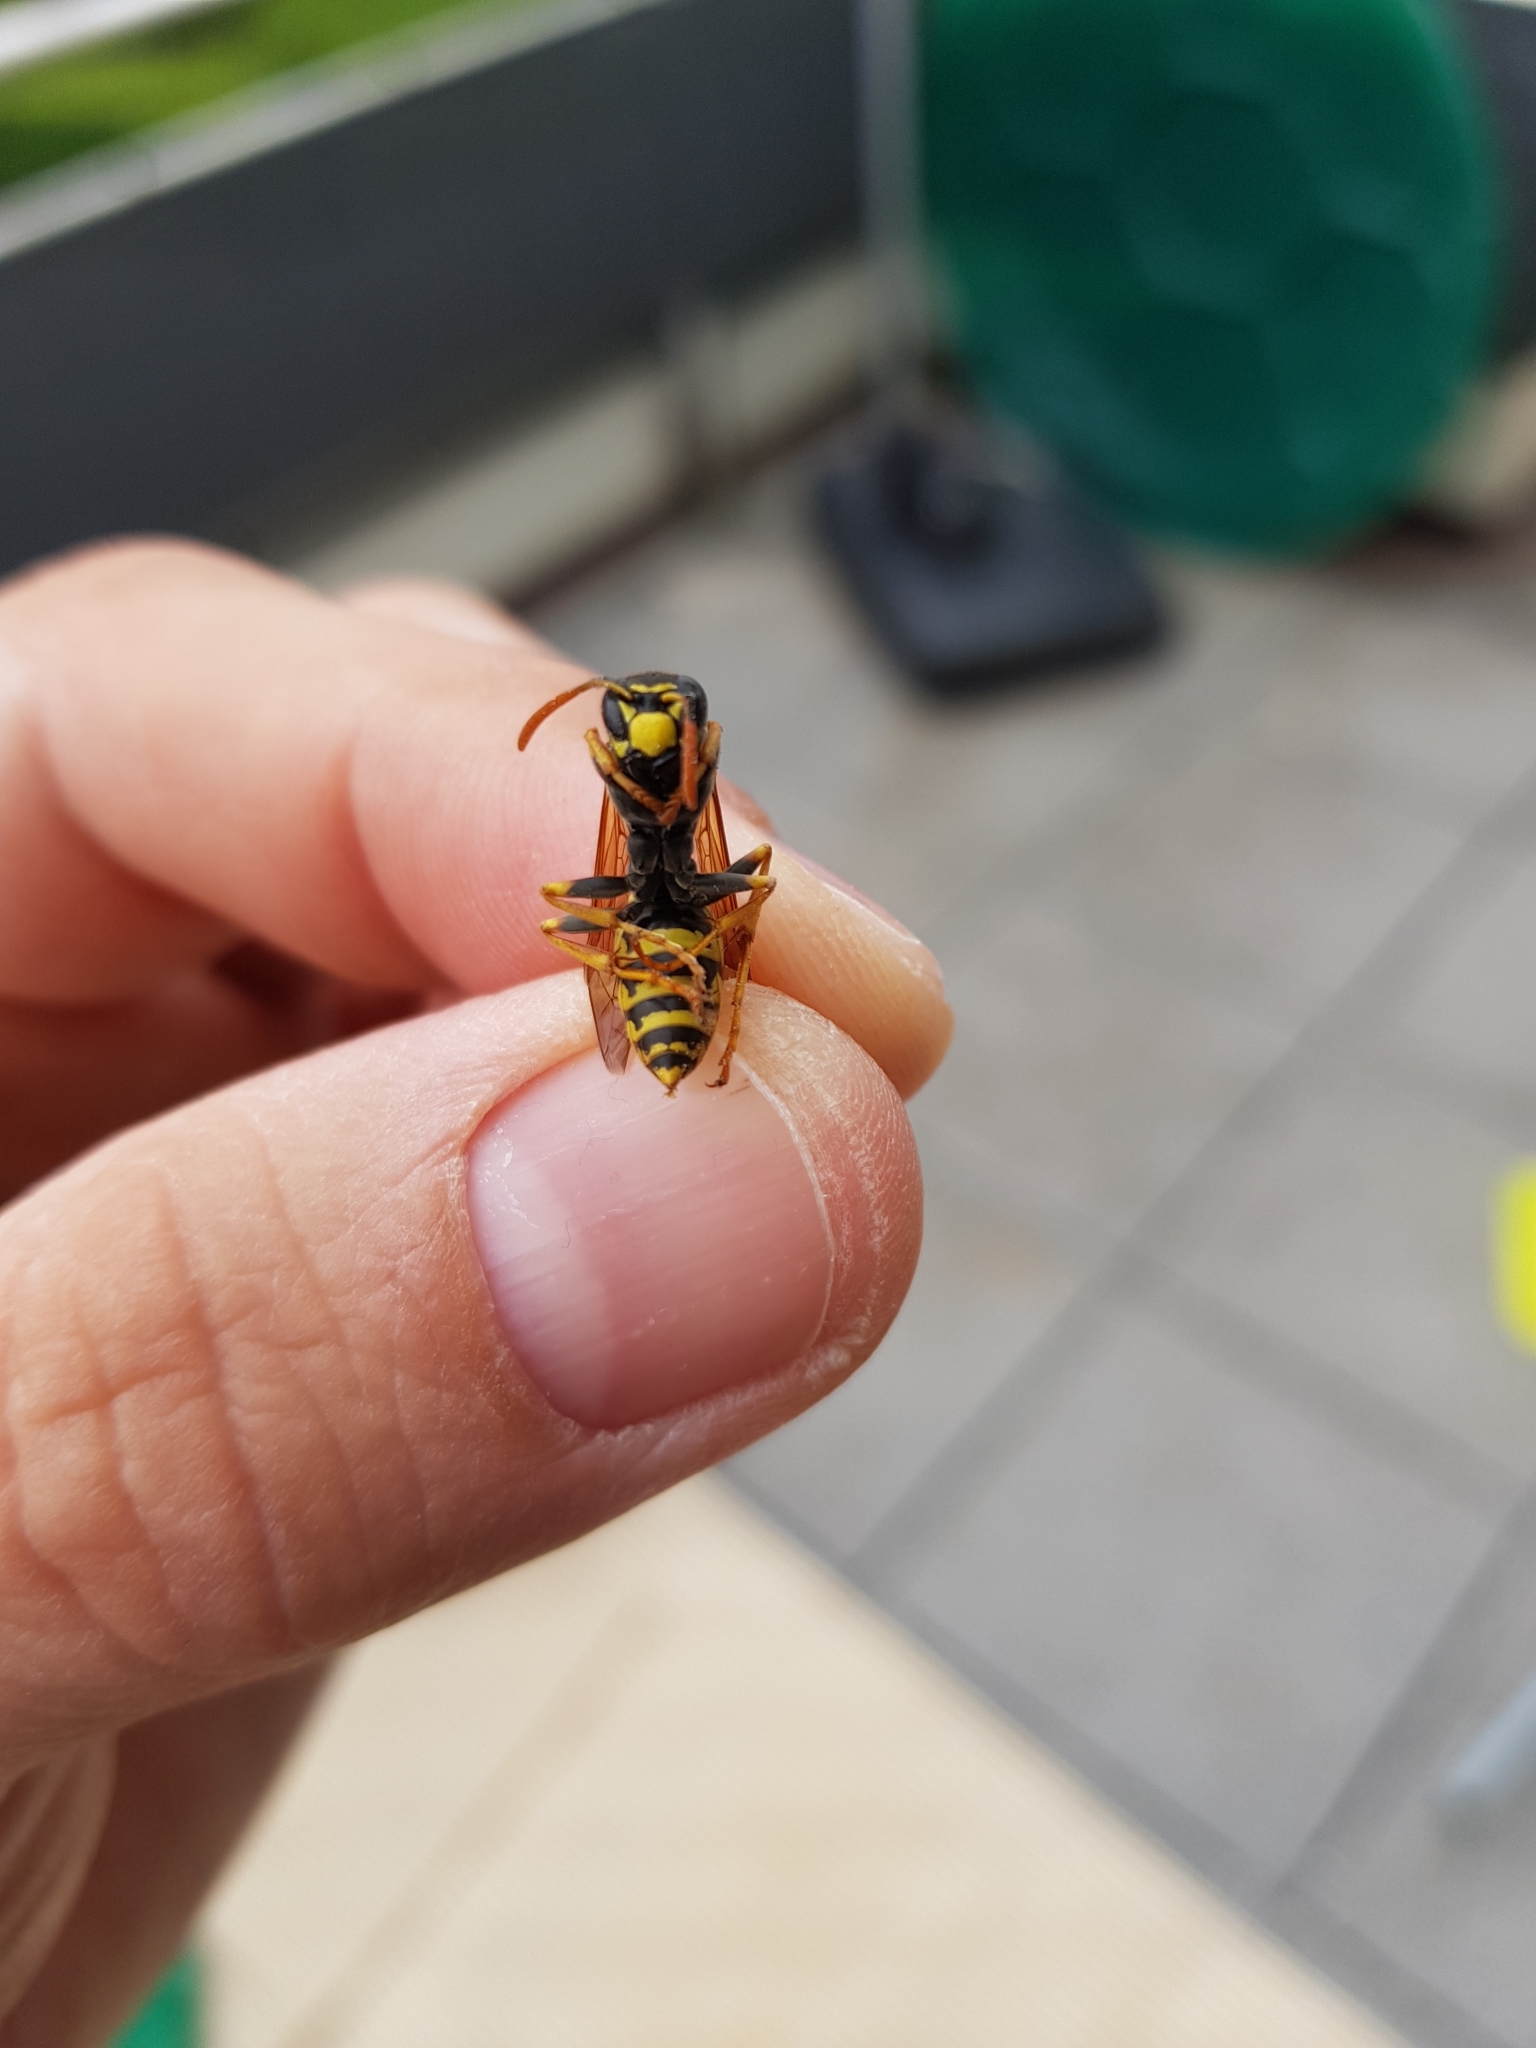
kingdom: Animalia
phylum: Arthropoda
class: Insecta
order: Hymenoptera
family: Eumenidae
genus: Polistes
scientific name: Polistes dominula
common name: Paper wasp
